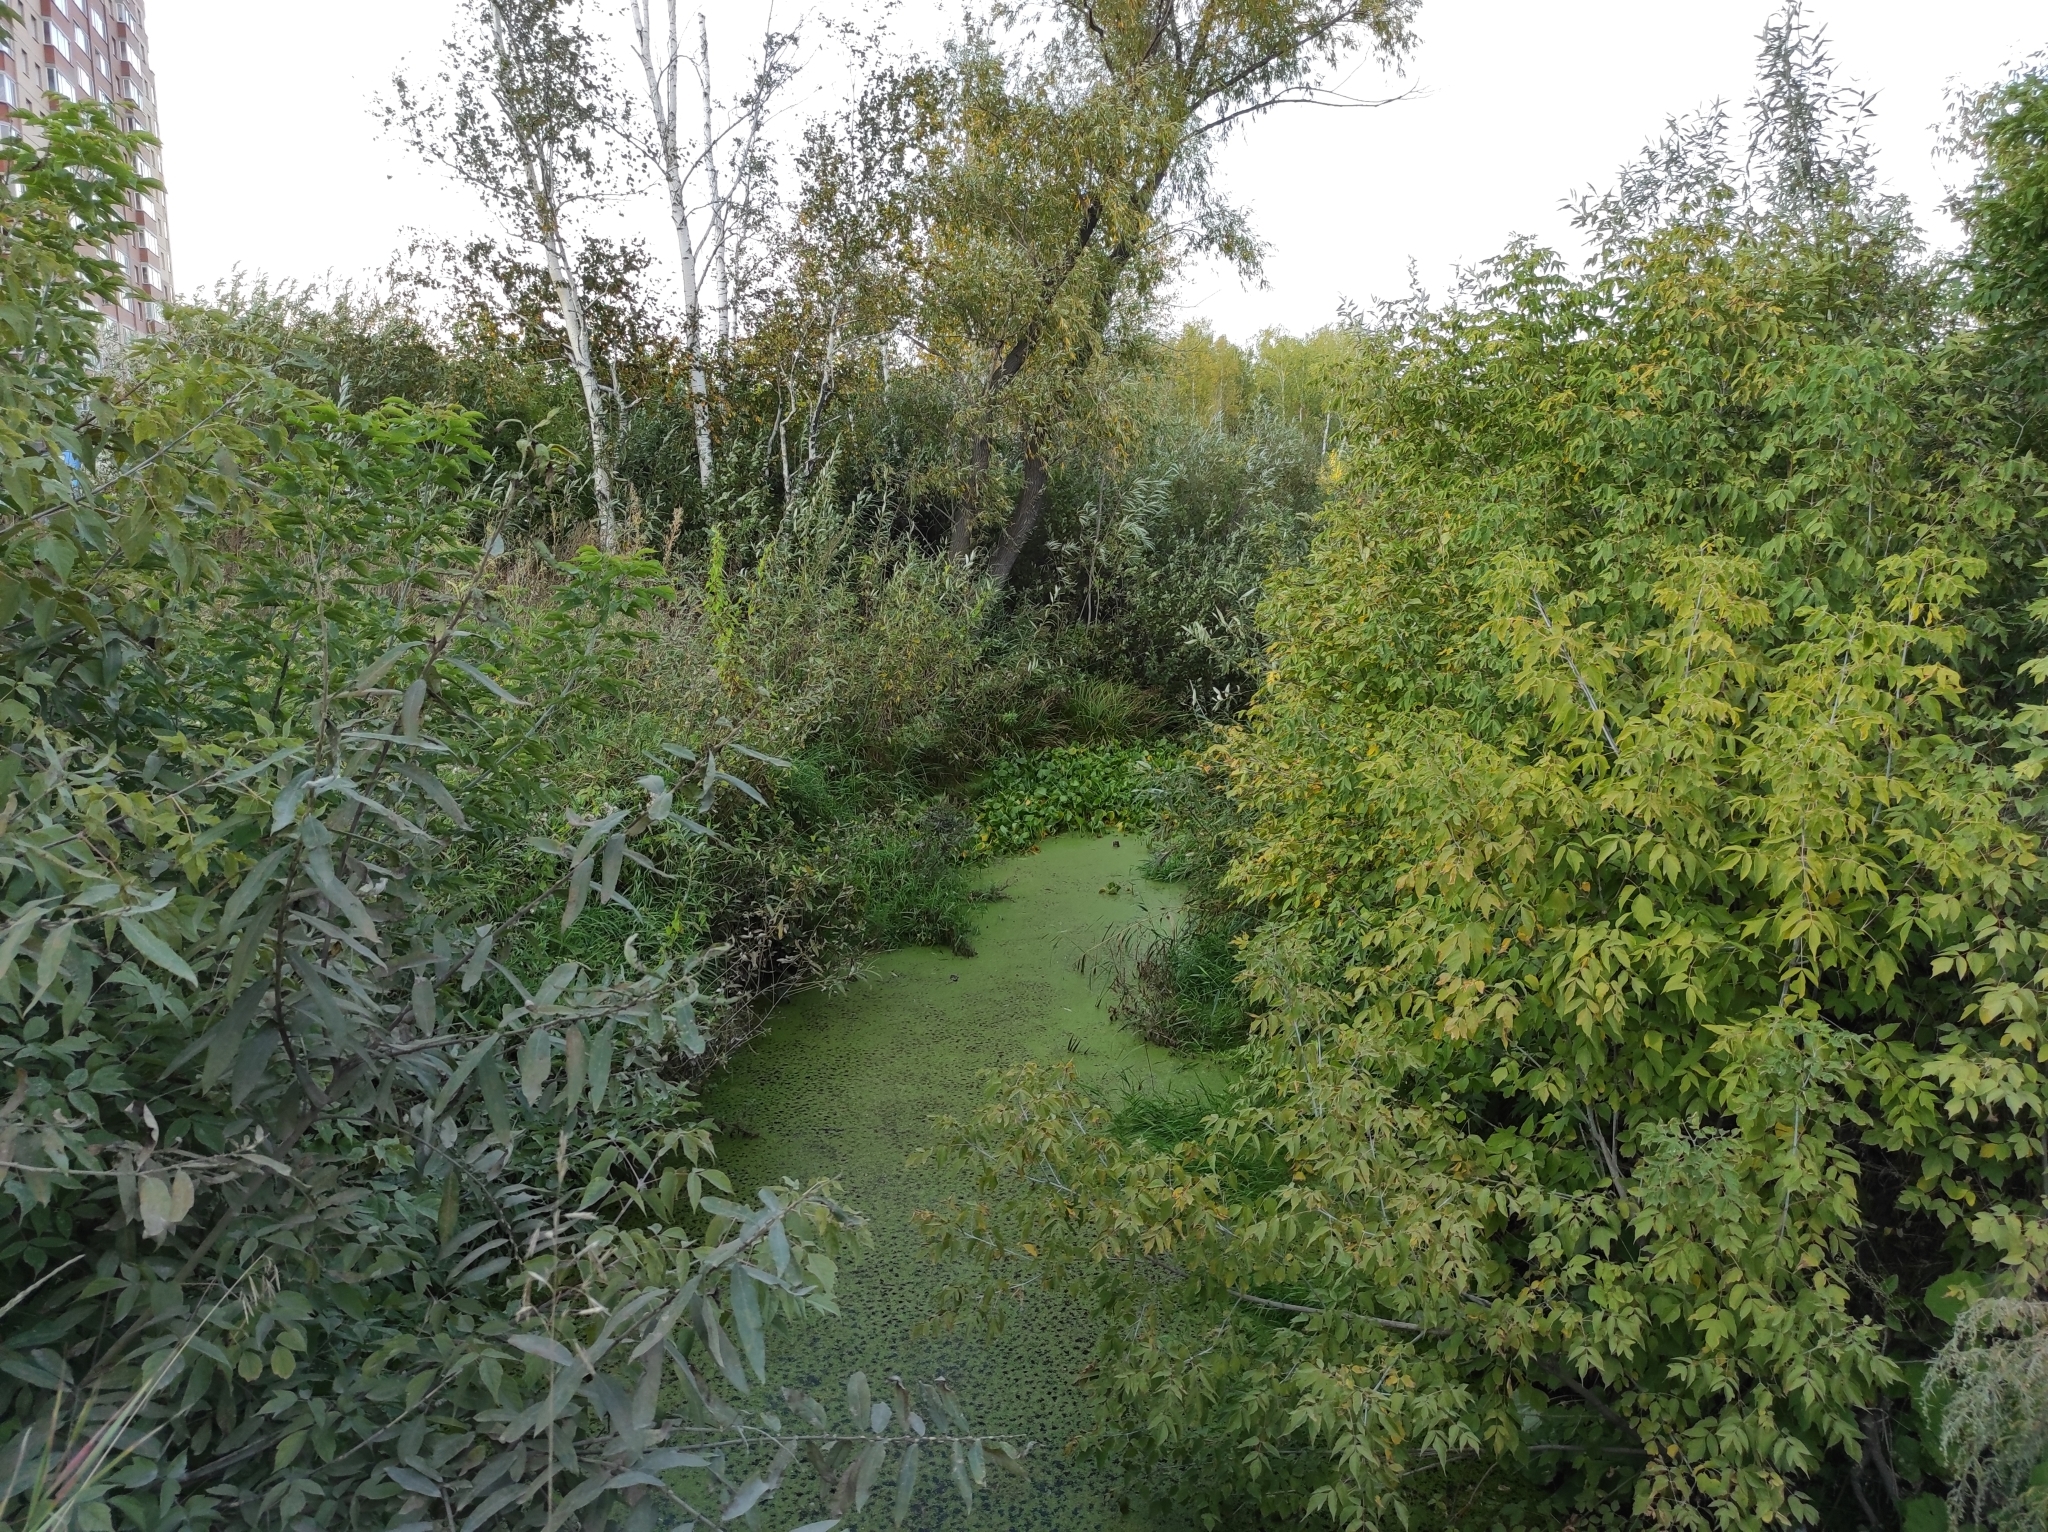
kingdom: Plantae
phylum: Tracheophyta
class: Liliopsida
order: Alismatales
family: Araceae
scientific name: Araceae
